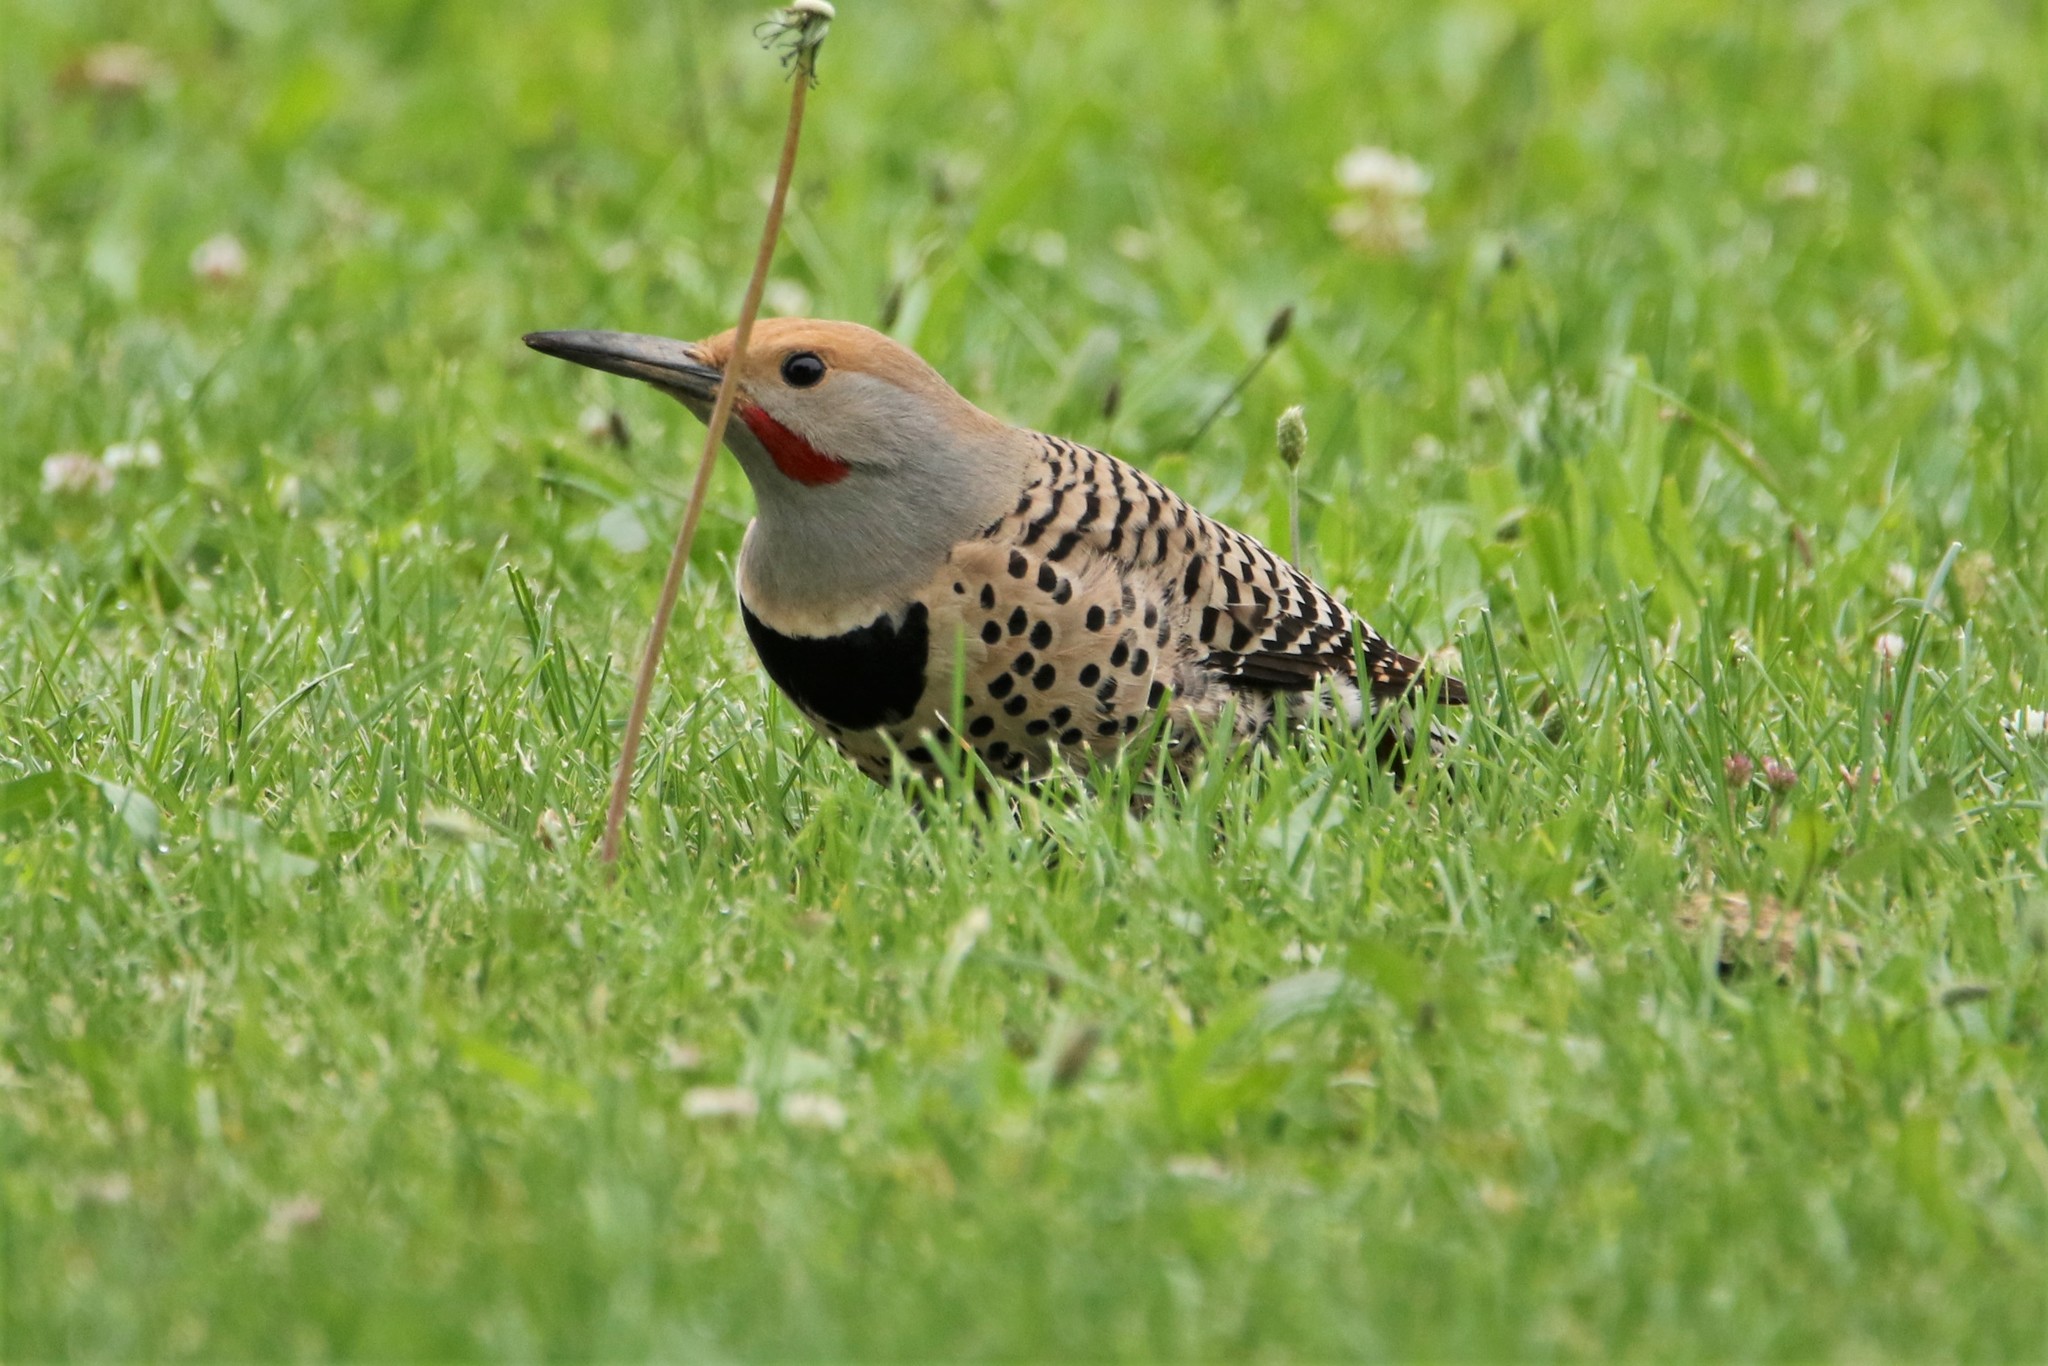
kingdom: Animalia
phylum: Chordata
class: Aves
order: Piciformes
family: Picidae
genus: Colaptes
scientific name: Colaptes auratus
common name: Northern flicker
